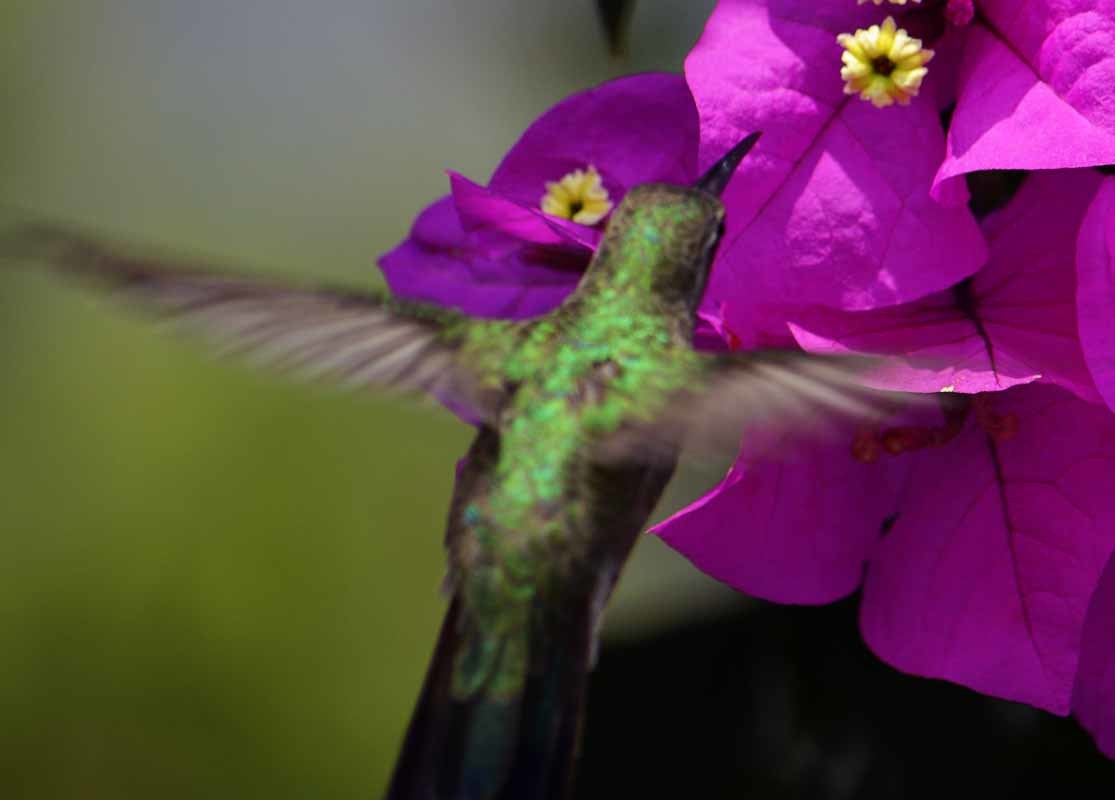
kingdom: Animalia
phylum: Chordata
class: Aves
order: Apodiformes
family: Trochilidae
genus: Cynanthus
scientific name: Cynanthus latirostris
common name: Broad-billed hummingbird
